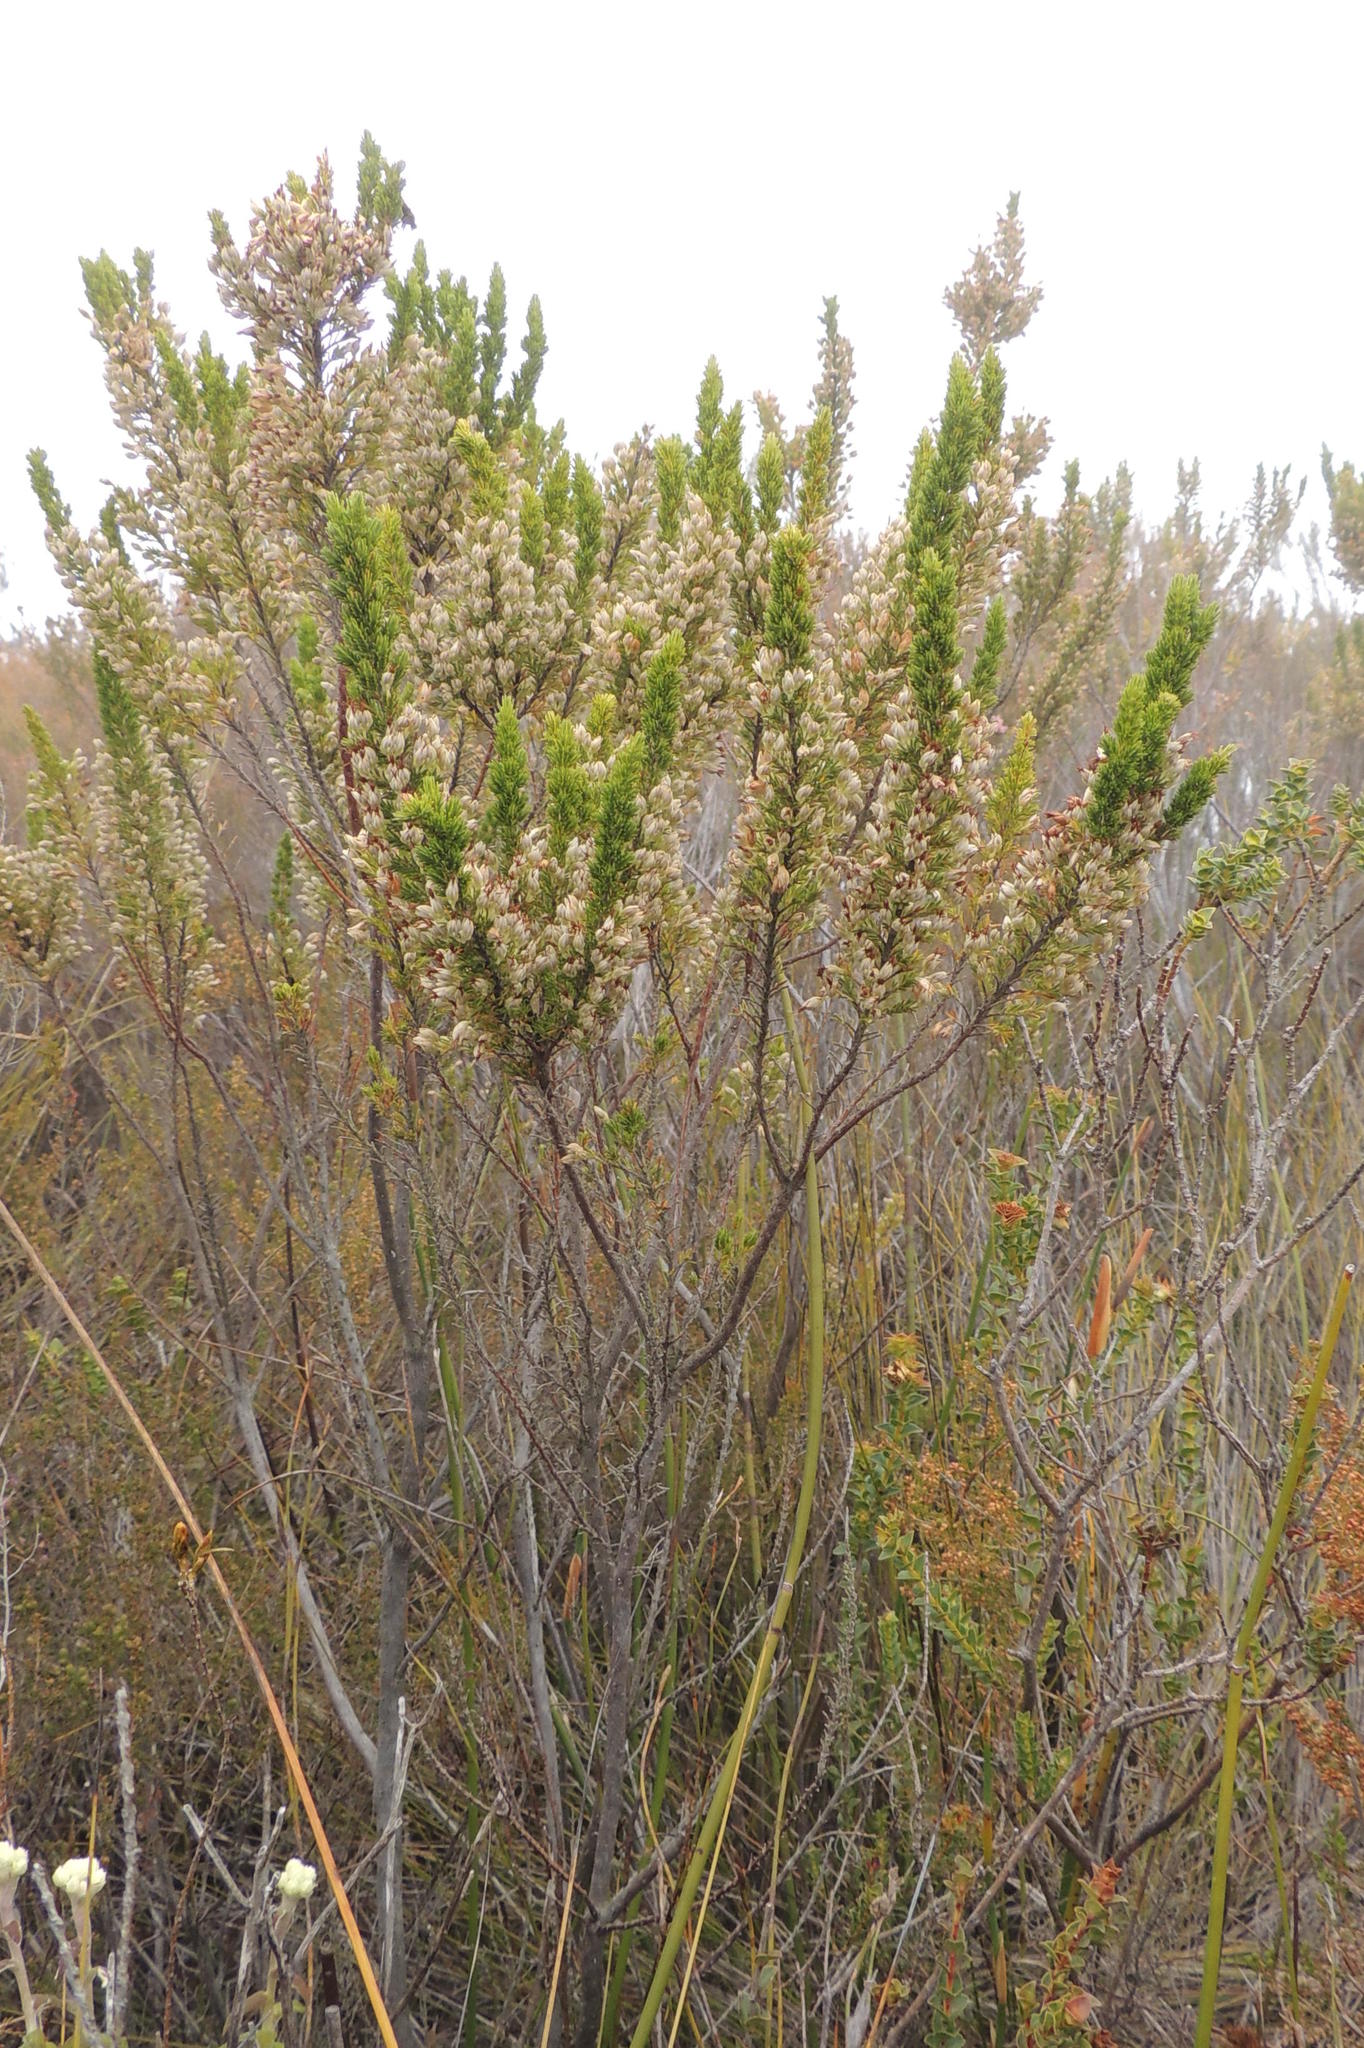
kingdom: Plantae
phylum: Tracheophyta
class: Magnoliopsida
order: Ericales
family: Ericaceae
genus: Erica
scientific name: Erica penicilliformis
